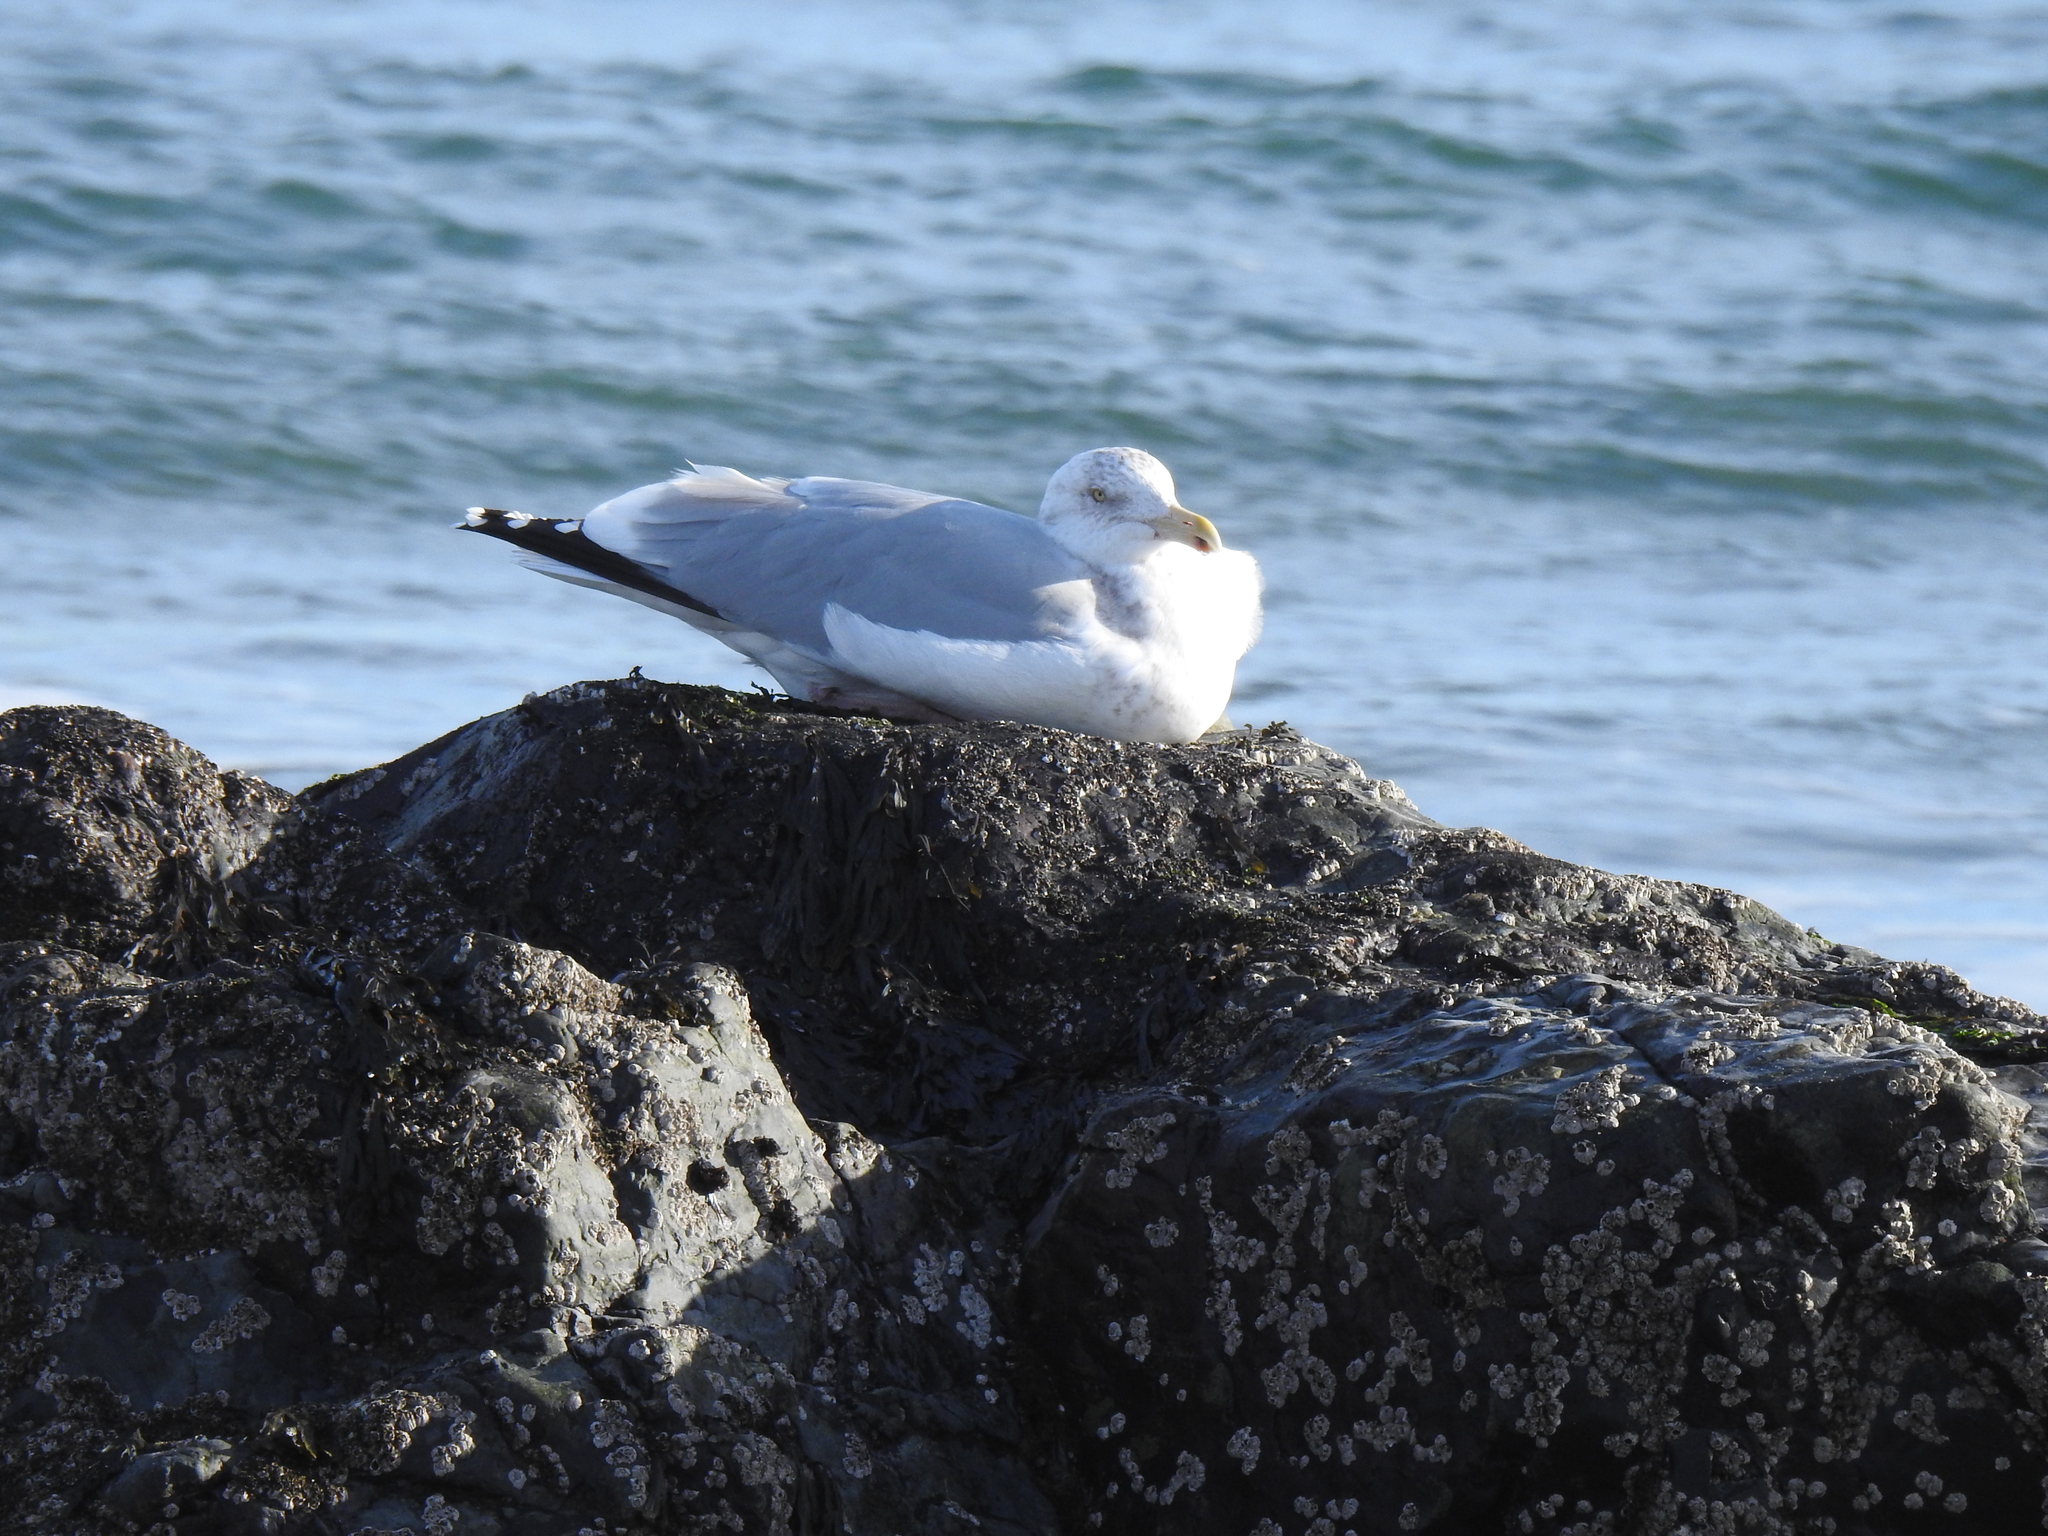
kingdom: Animalia
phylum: Chordata
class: Aves
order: Charadriiformes
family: Laridae
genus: Larus
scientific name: Larus argentatus
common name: Herring gull
